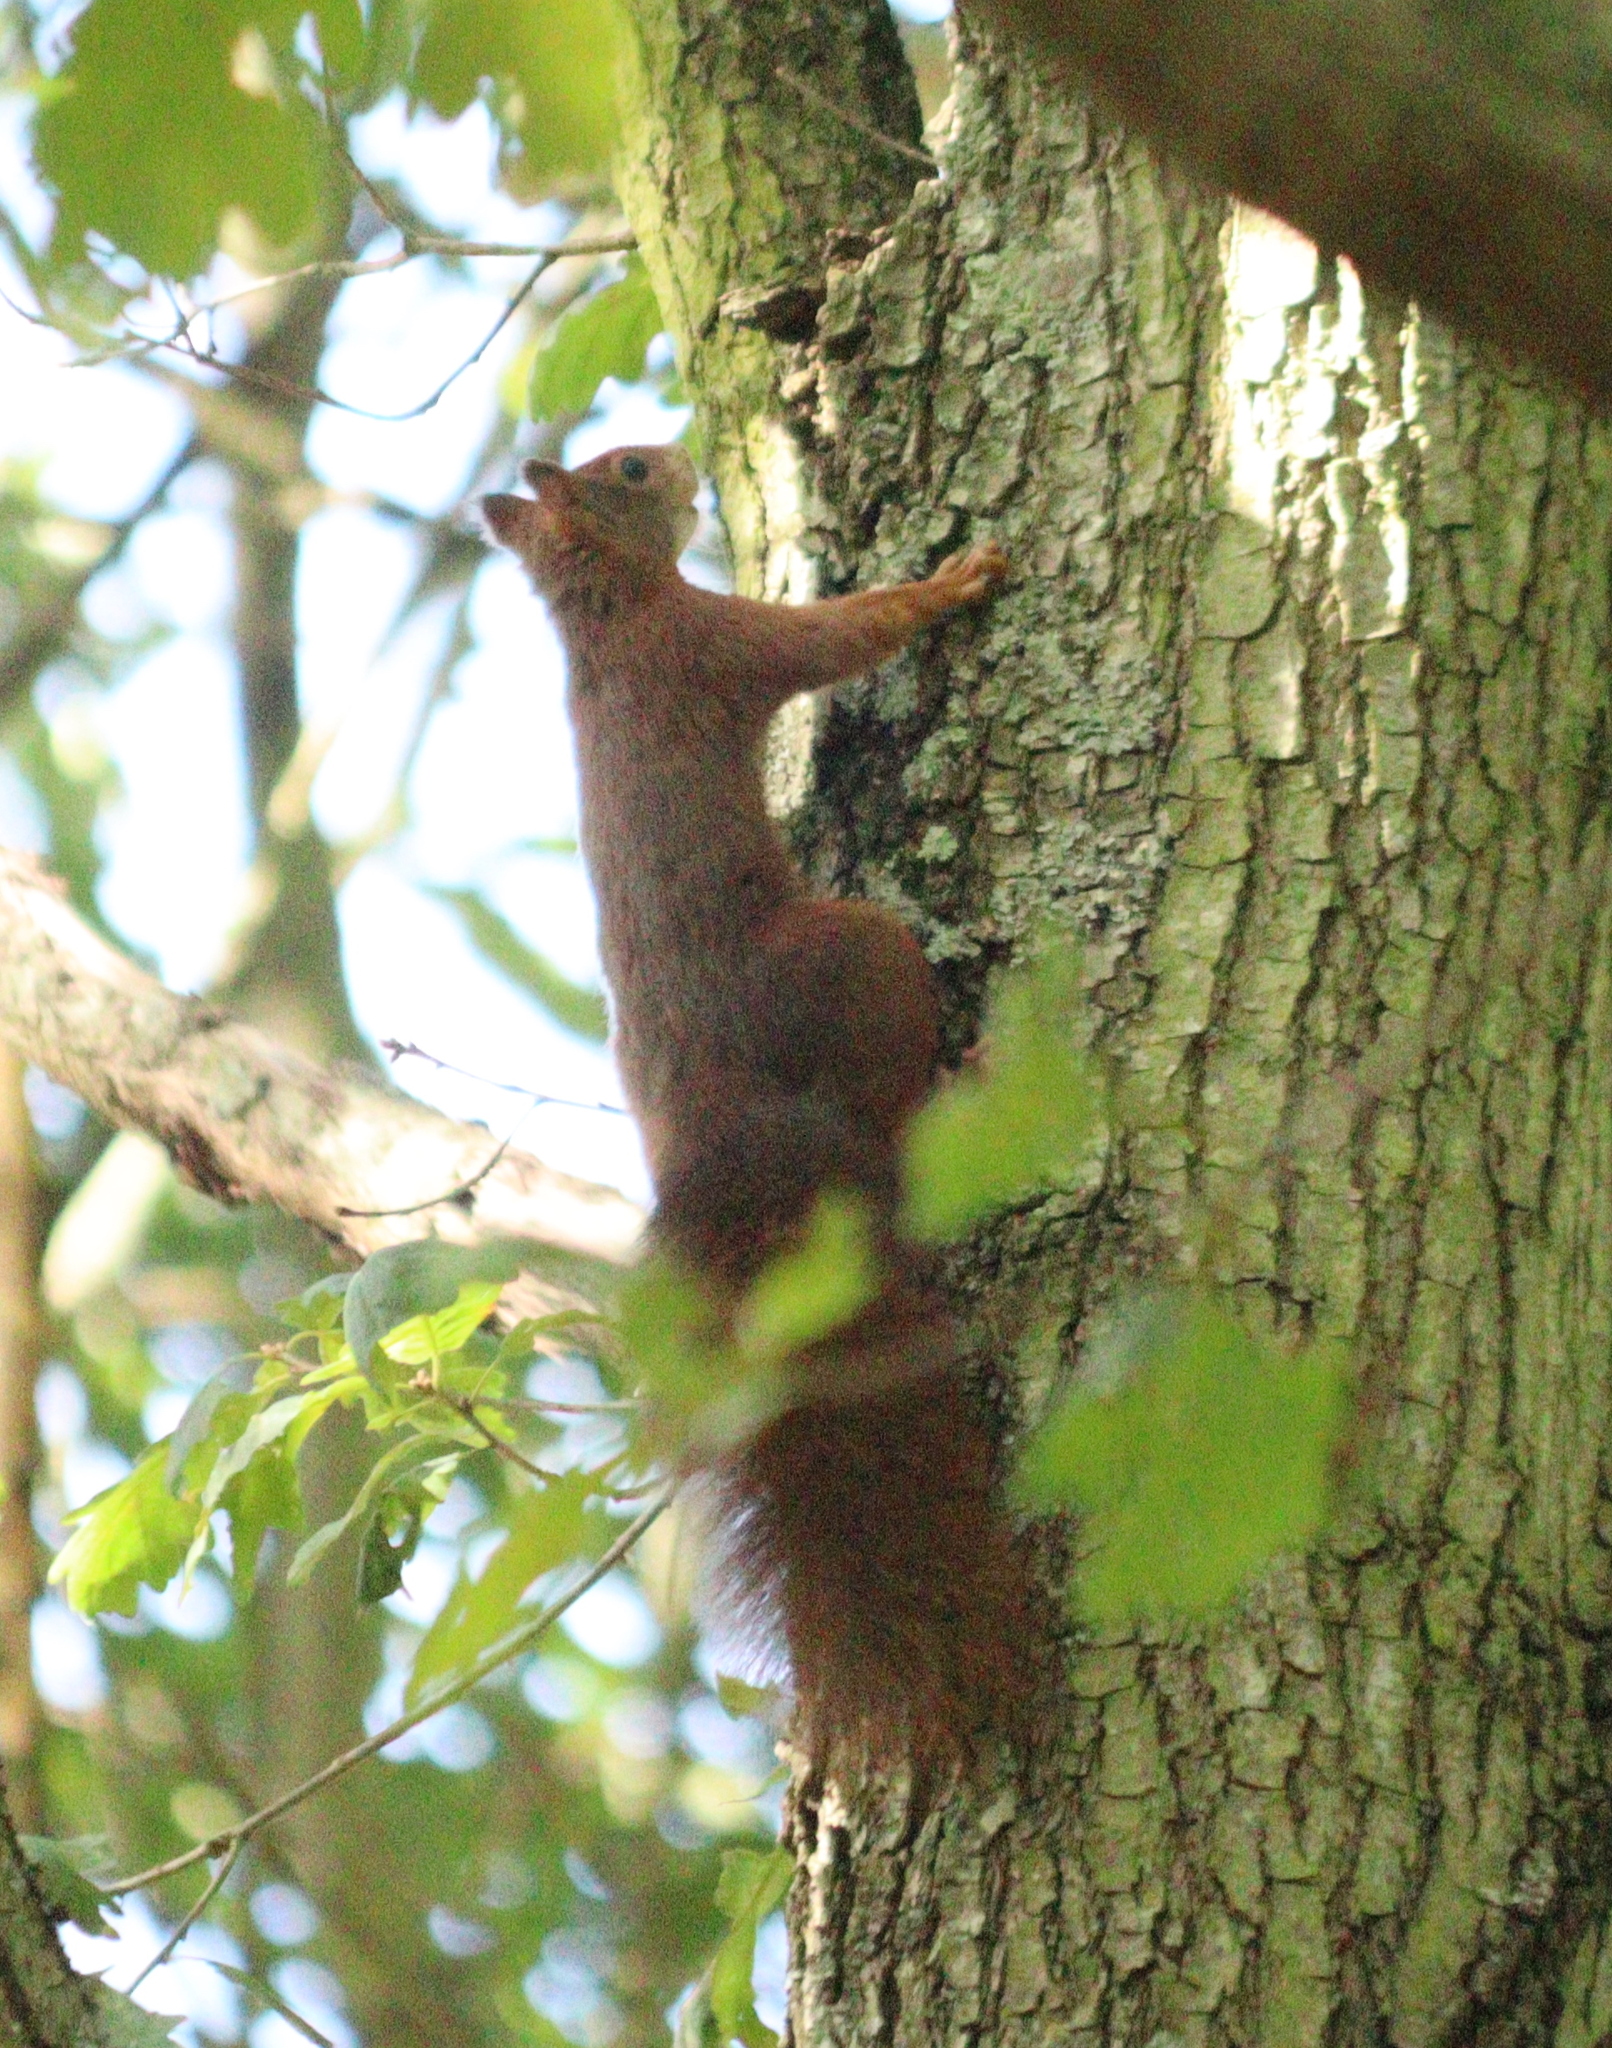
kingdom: Animalia
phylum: Chordata
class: Mammalia
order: Rodentia
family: Sciuridae
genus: Sciurus
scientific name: Sciurus vulgaris
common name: Eurasian red squirrel
